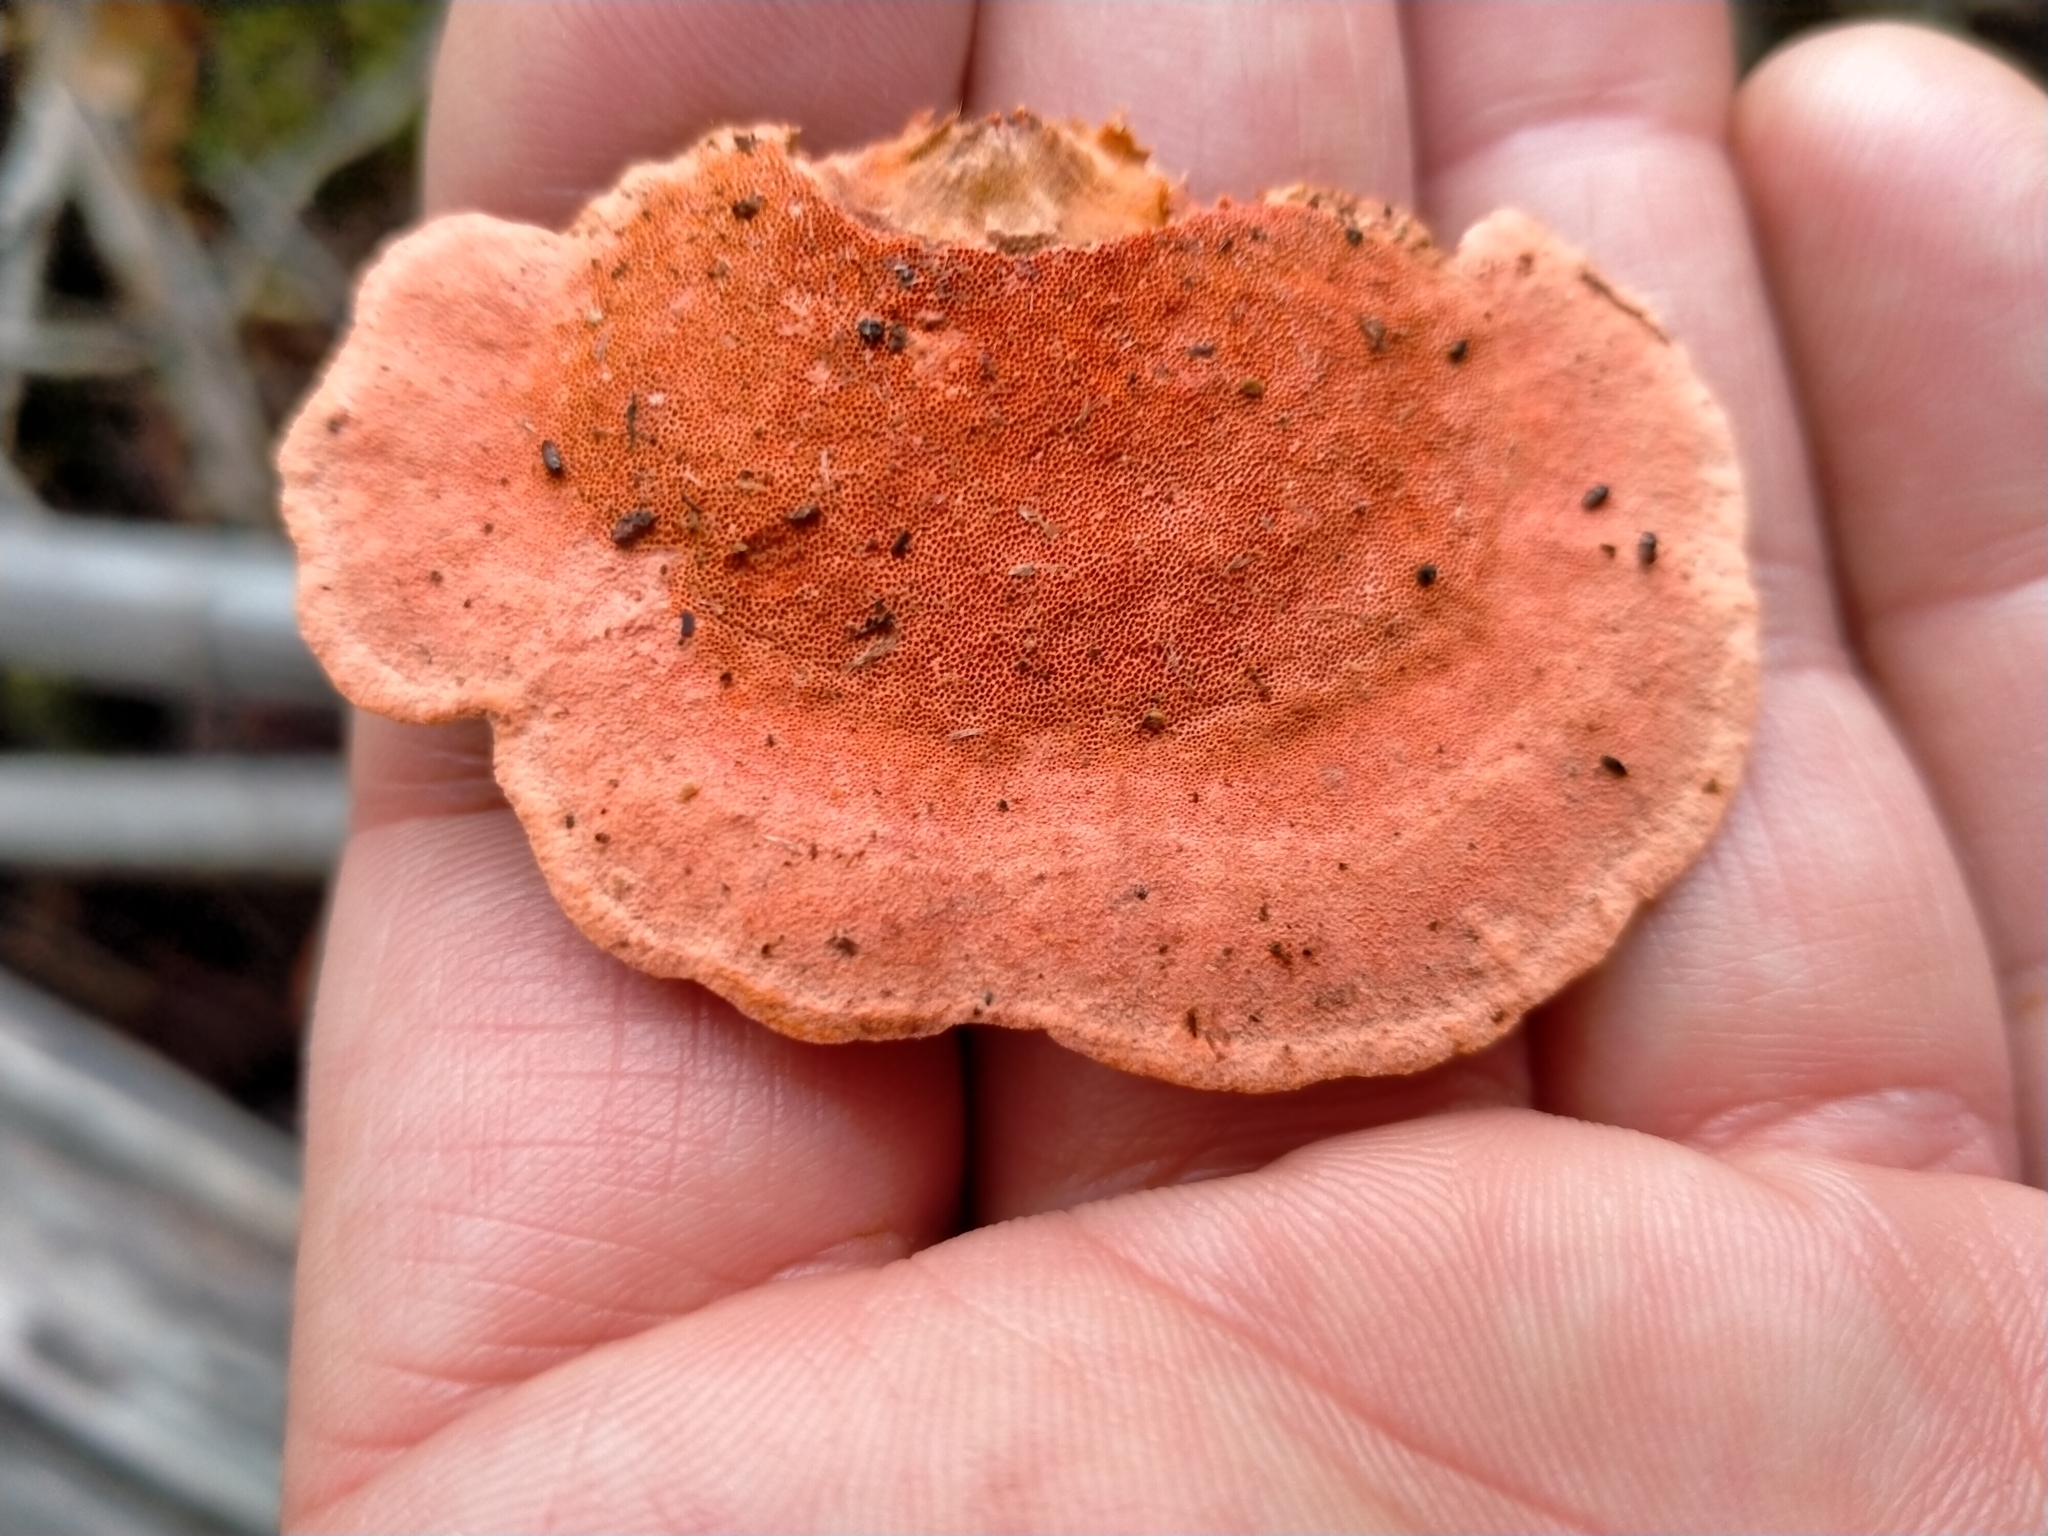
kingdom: Fungi
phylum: Basidiomycota
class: Agaricomycetes
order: Polyporales
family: Polyporaceae
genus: Trametes
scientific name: Trametes coccinea
